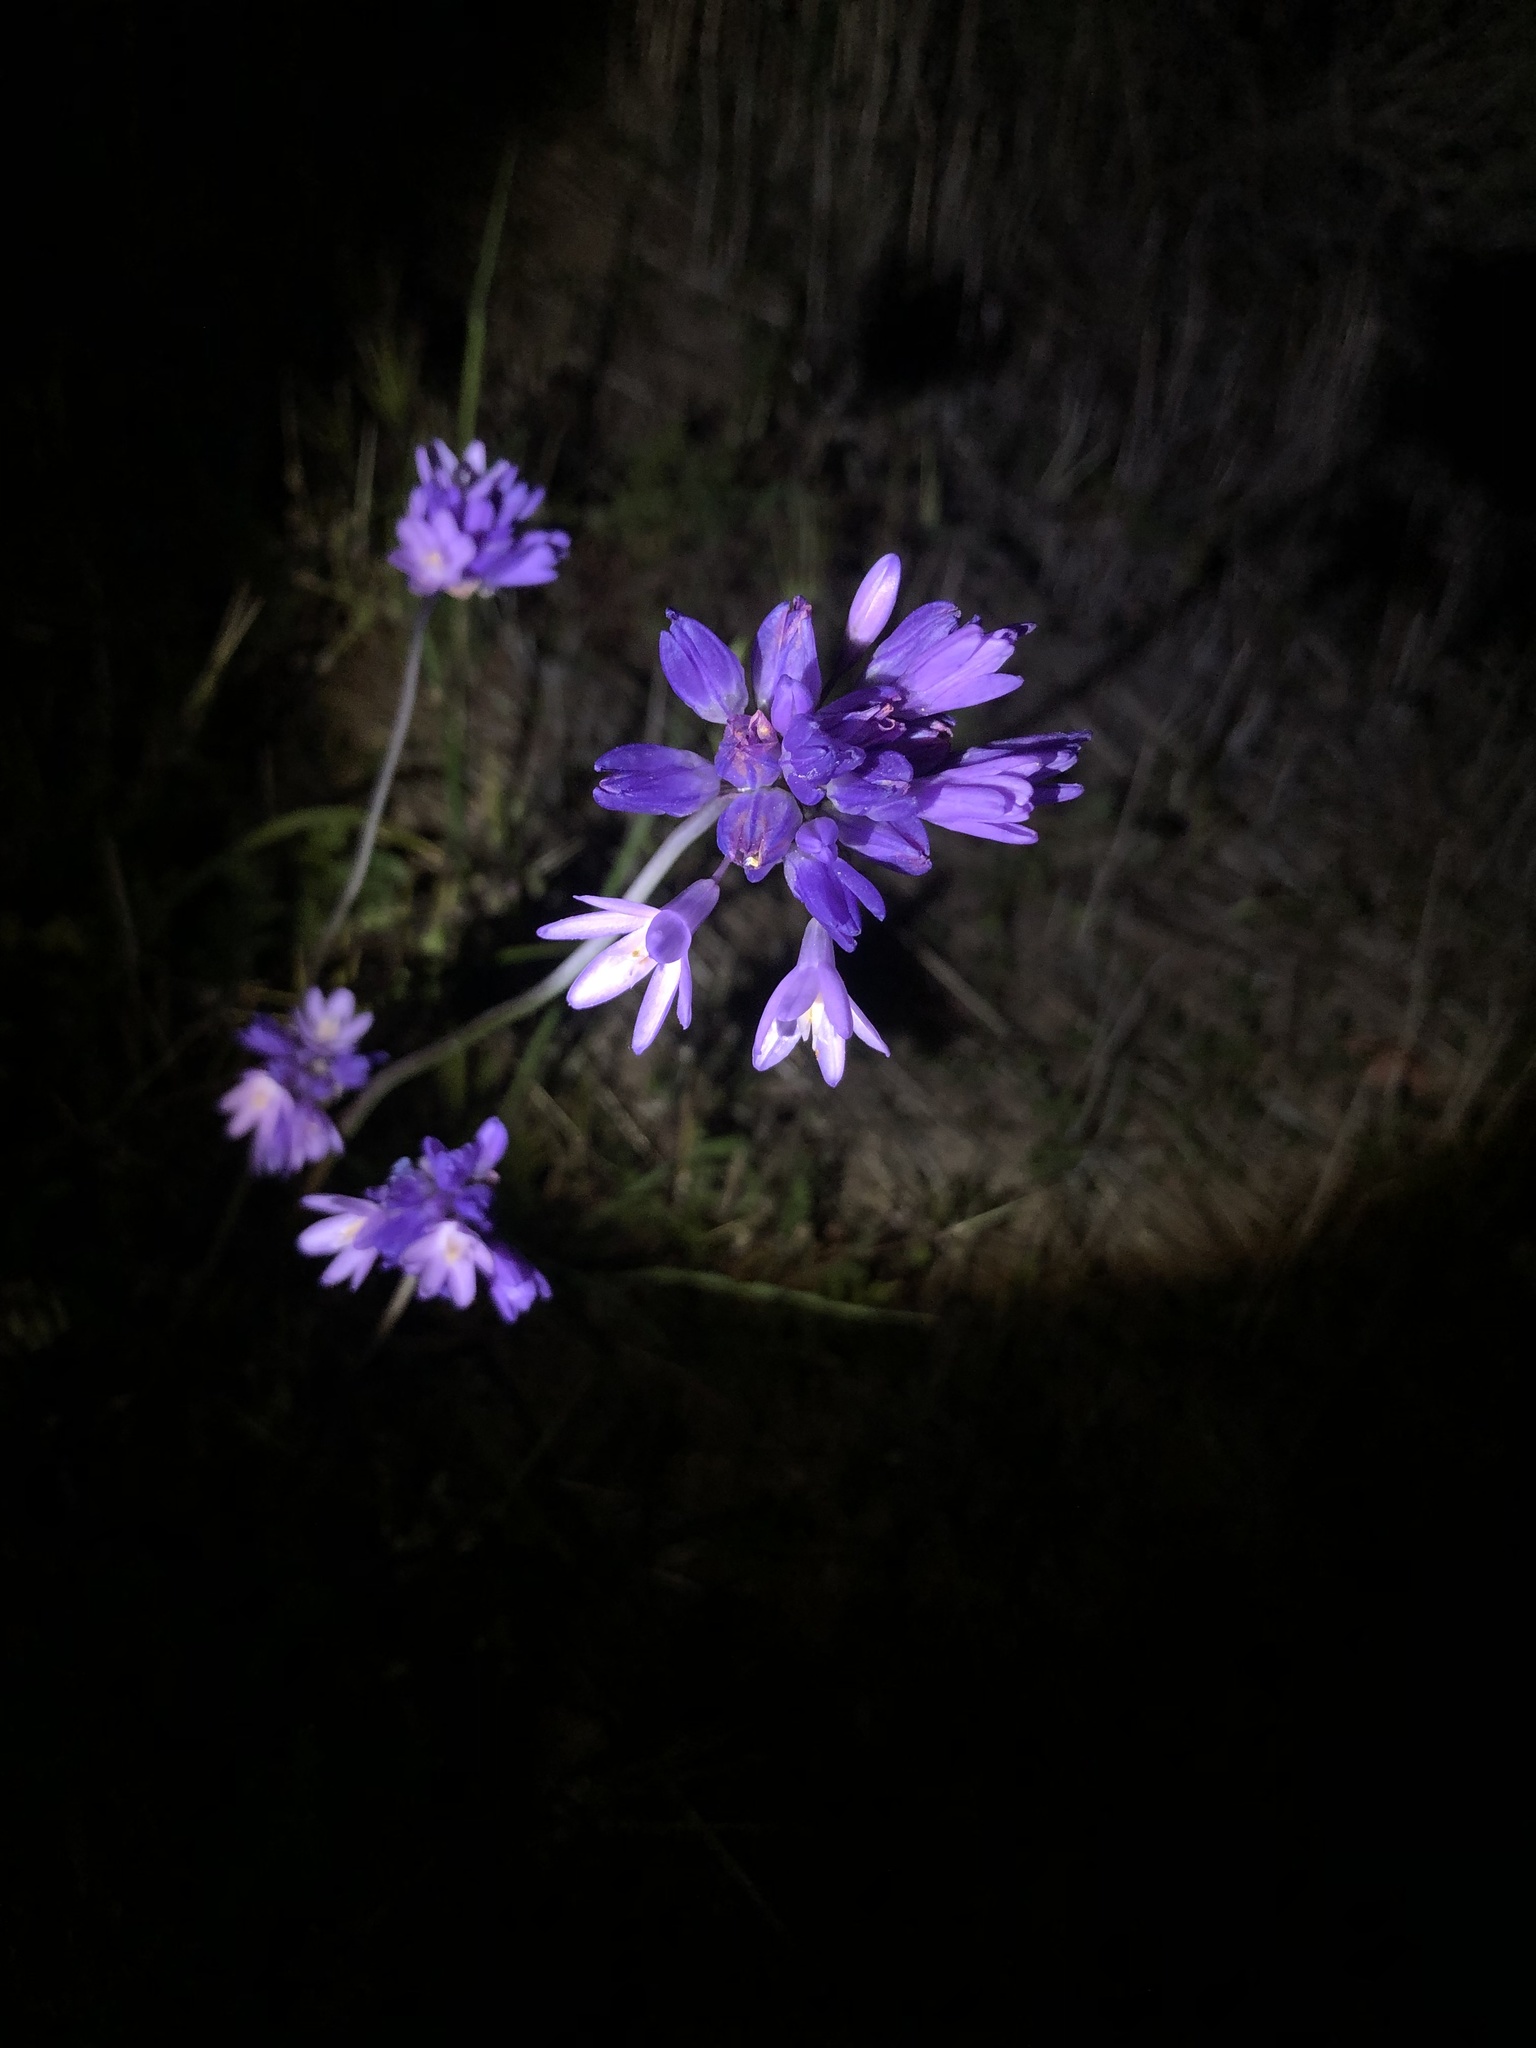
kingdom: Plantae
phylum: Tracheophyta
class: Liliopsida
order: Asparagales
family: Asparagaceae
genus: Dipterostemon
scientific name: Dipterostemon capitatus
